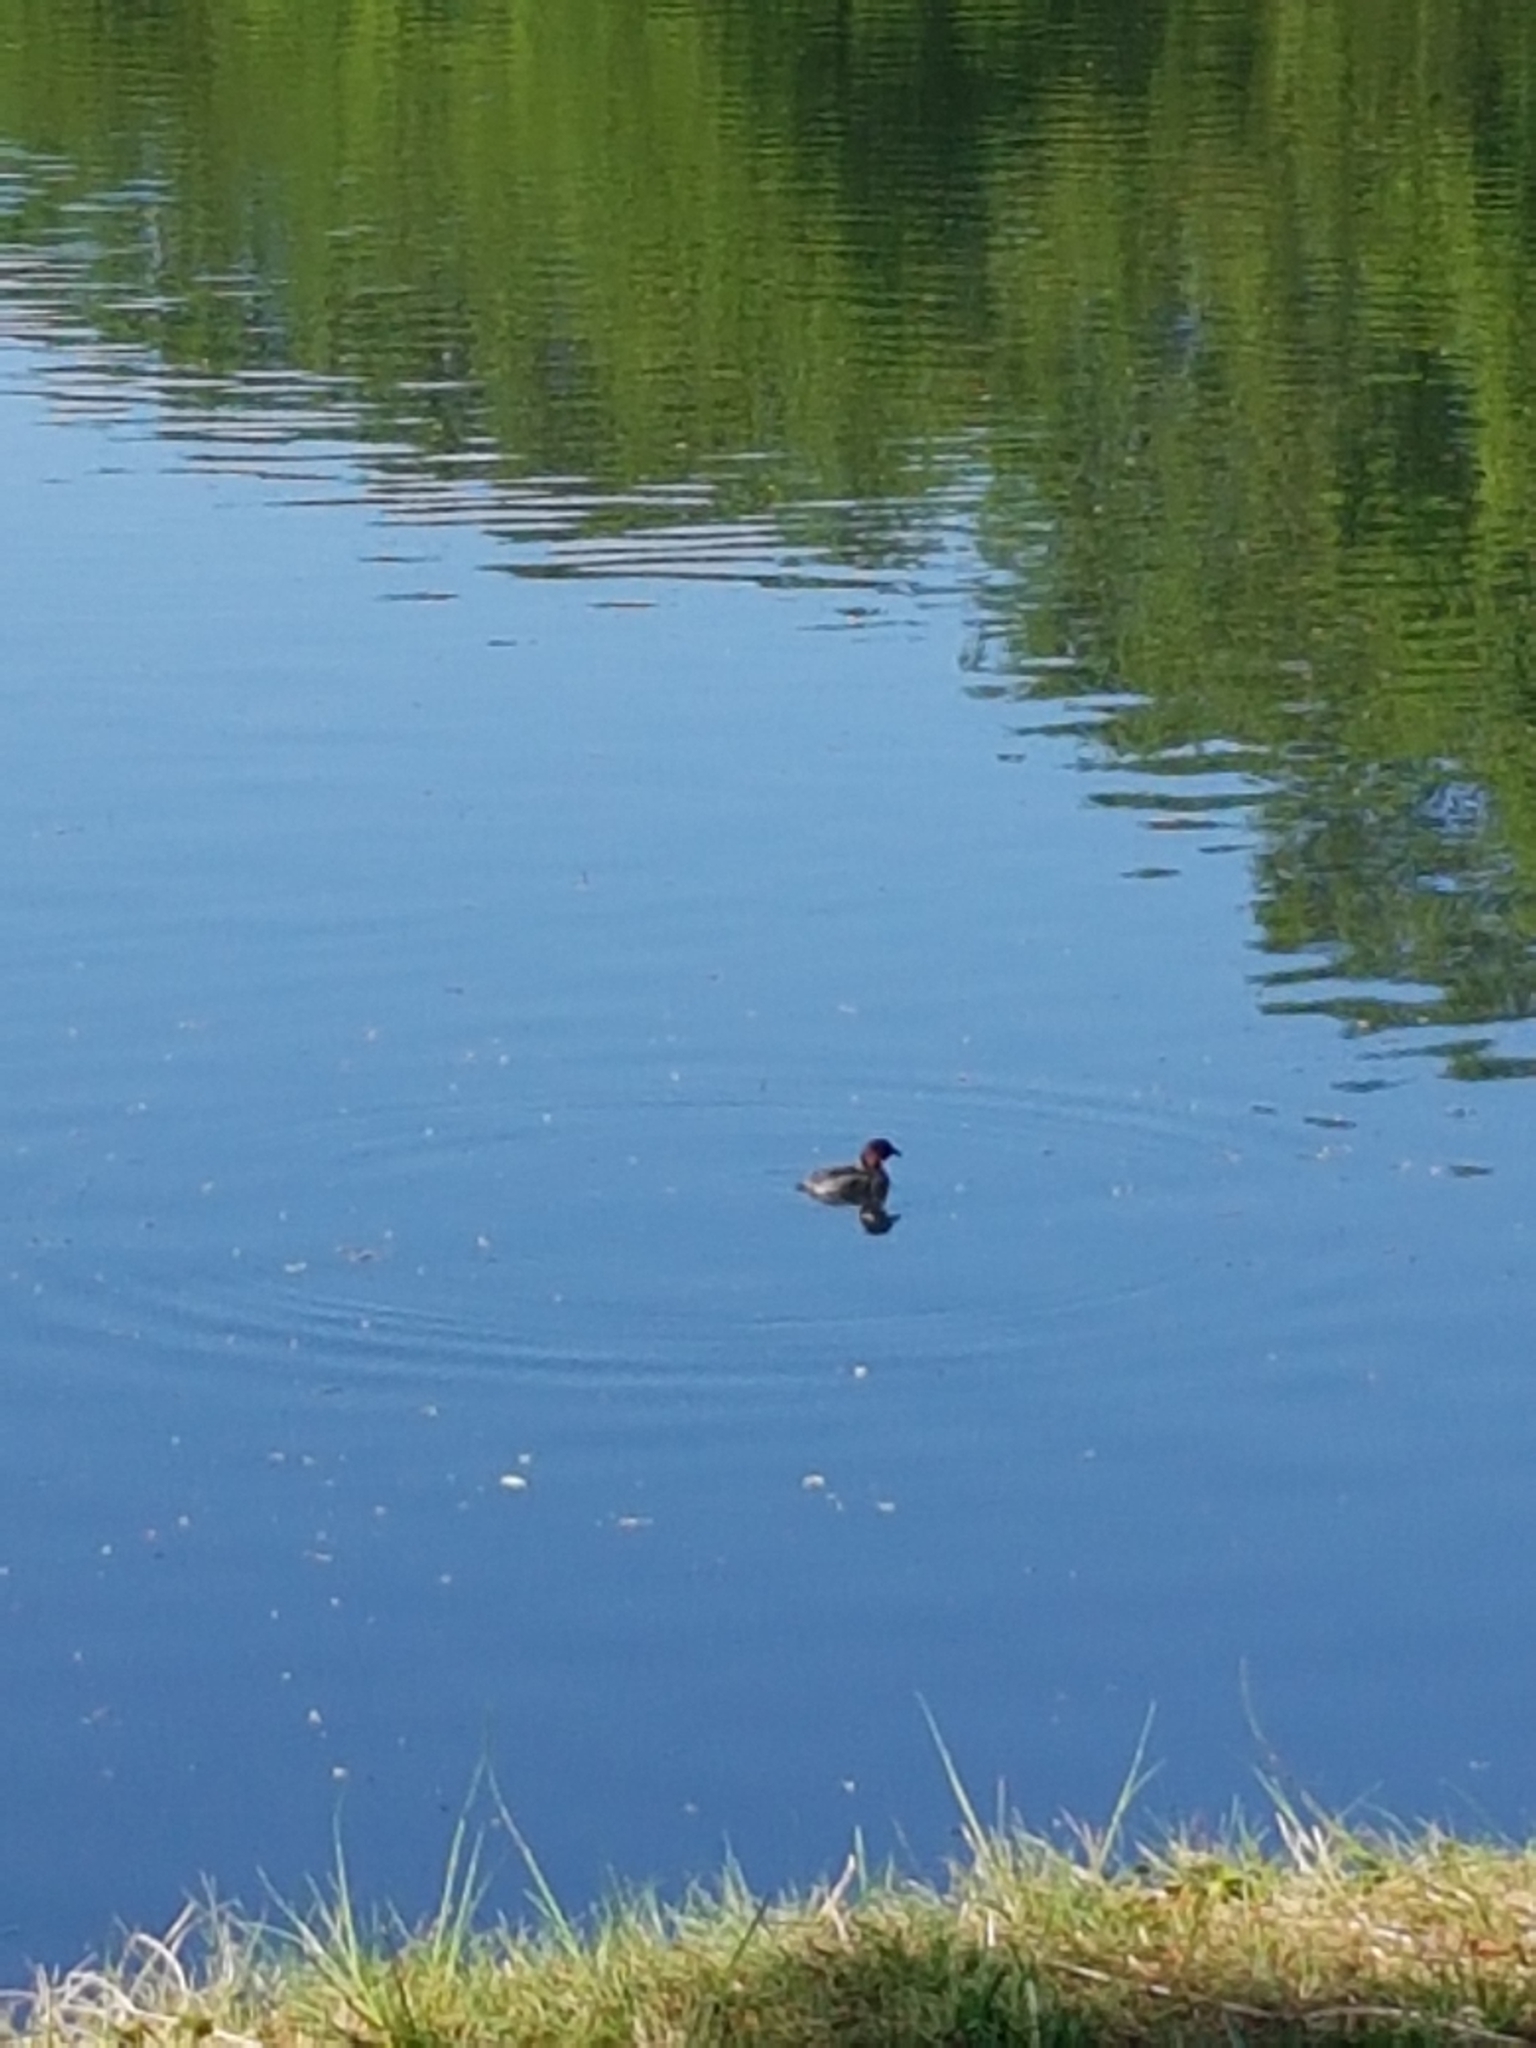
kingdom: Animalia
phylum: Chordata
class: Aves
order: Podicipediformes
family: Podicipedidae
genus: Tachybaptus
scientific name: Tachybaptus ruficollis
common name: Little grebe
